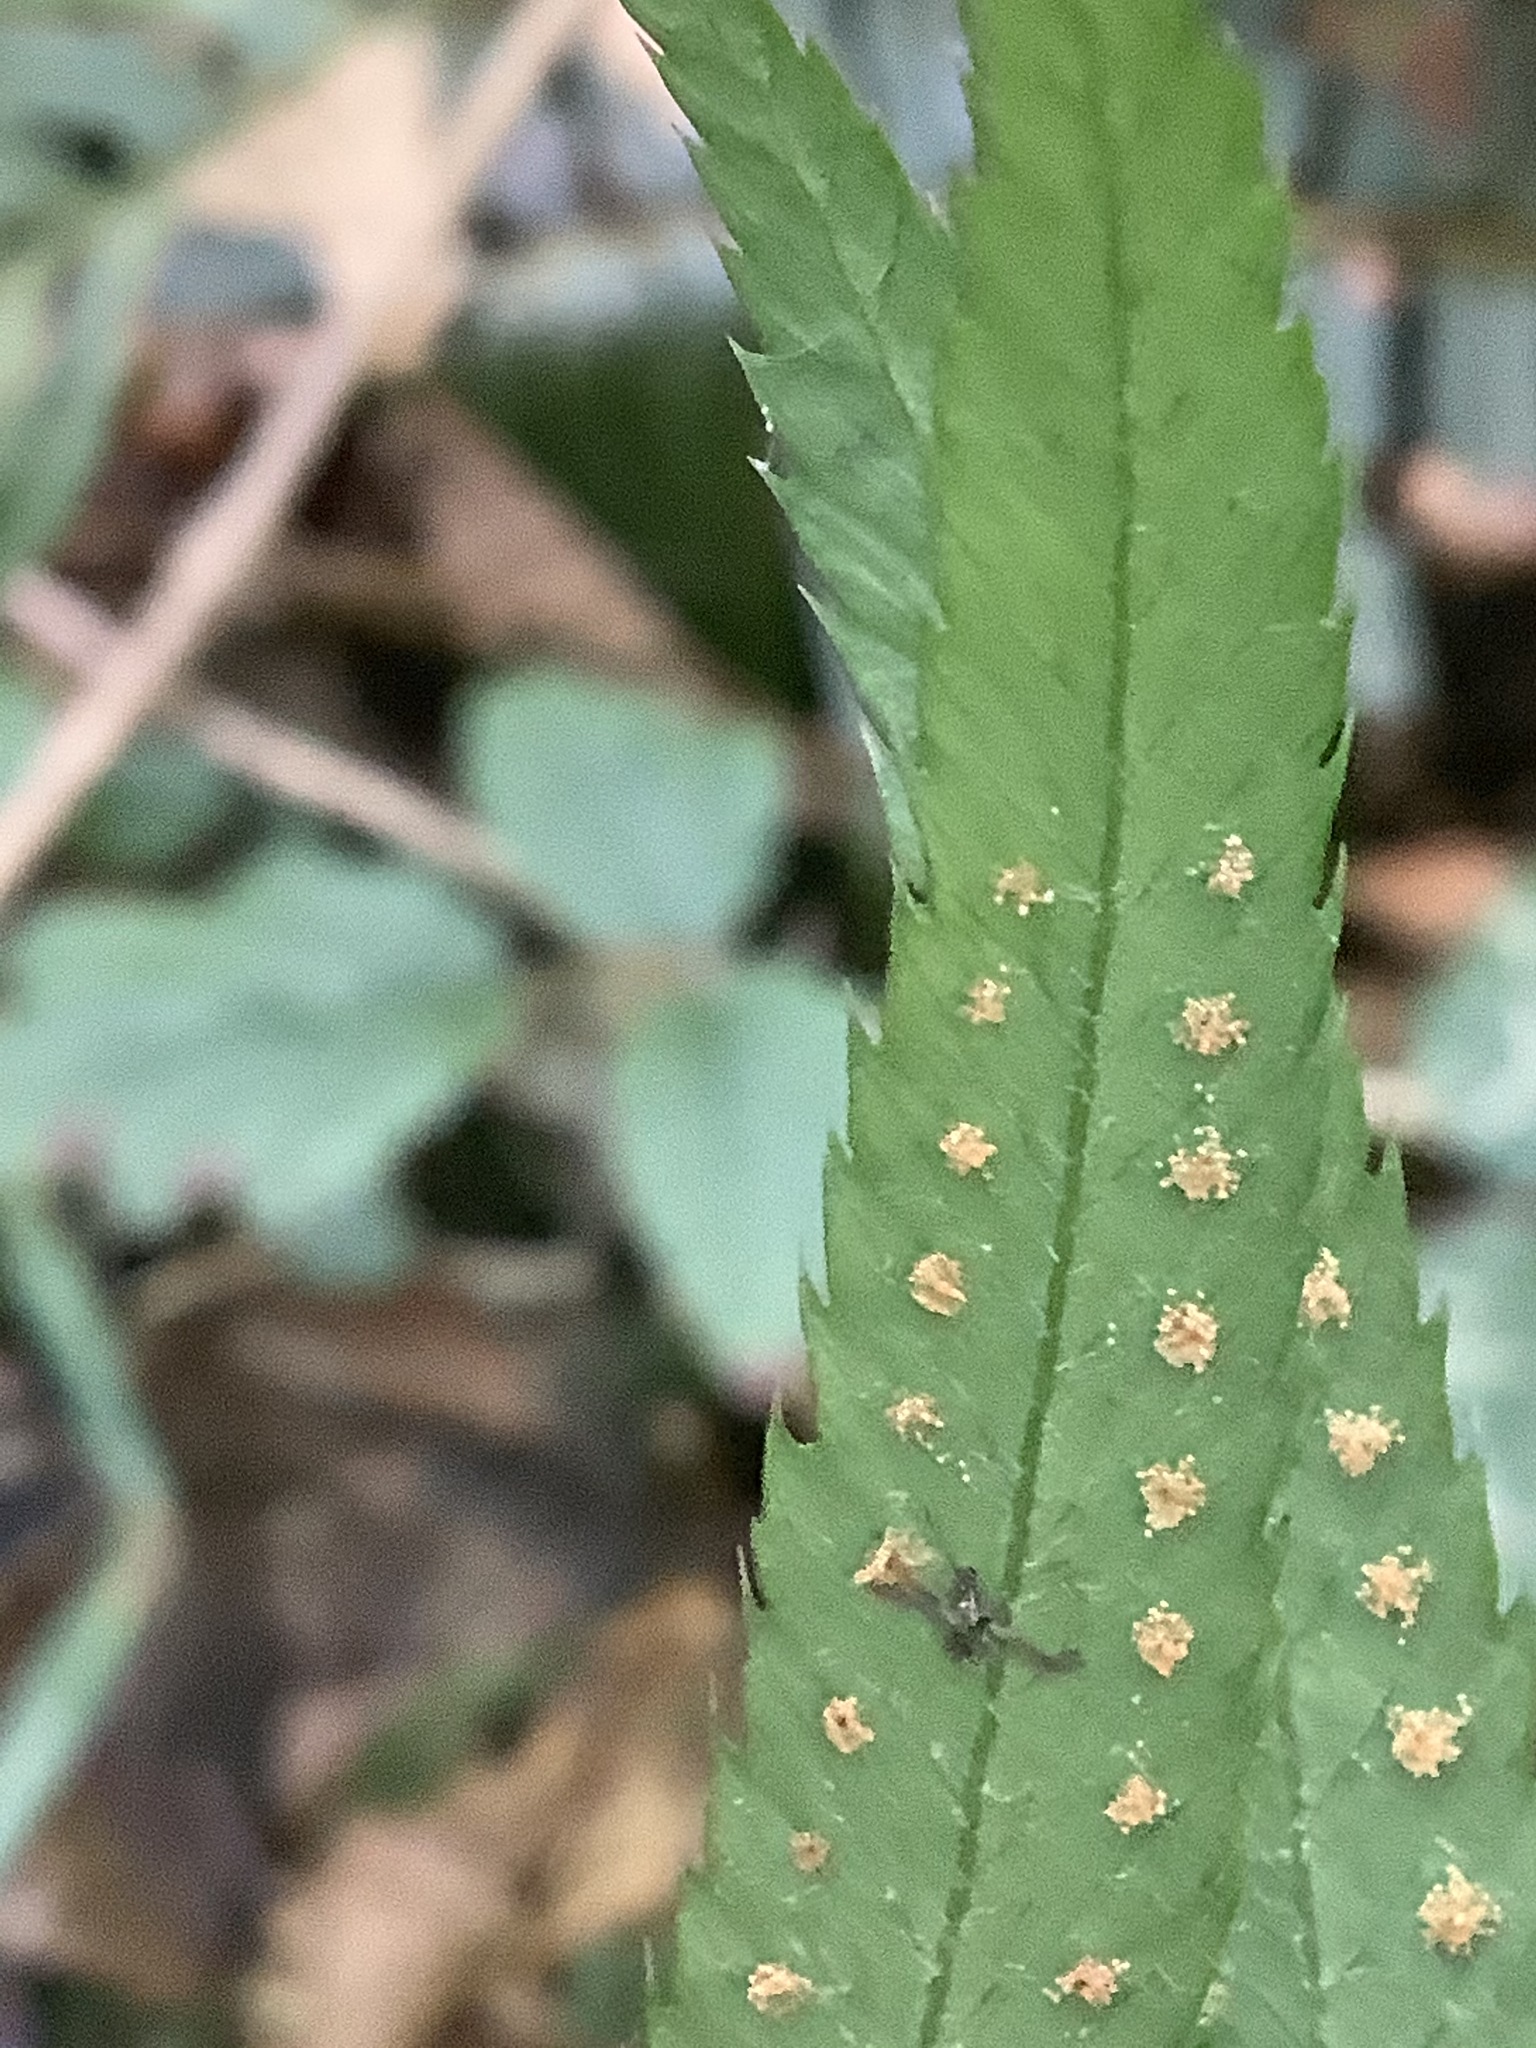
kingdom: Plantae
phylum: Tracheophyta
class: Polypodiopsida
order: Polypodiales
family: Dryopteridaceae
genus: Polystichum
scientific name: Polystichum munitum
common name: Western sword-fern
